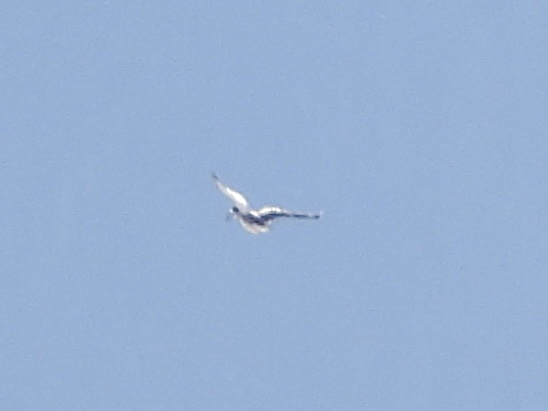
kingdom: Animalia
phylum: Chordata
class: Aves
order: Coraciiformes
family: Alcedinidae
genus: Megaceryle
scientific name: Megaceryle alcyon
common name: Belted kingfisher
